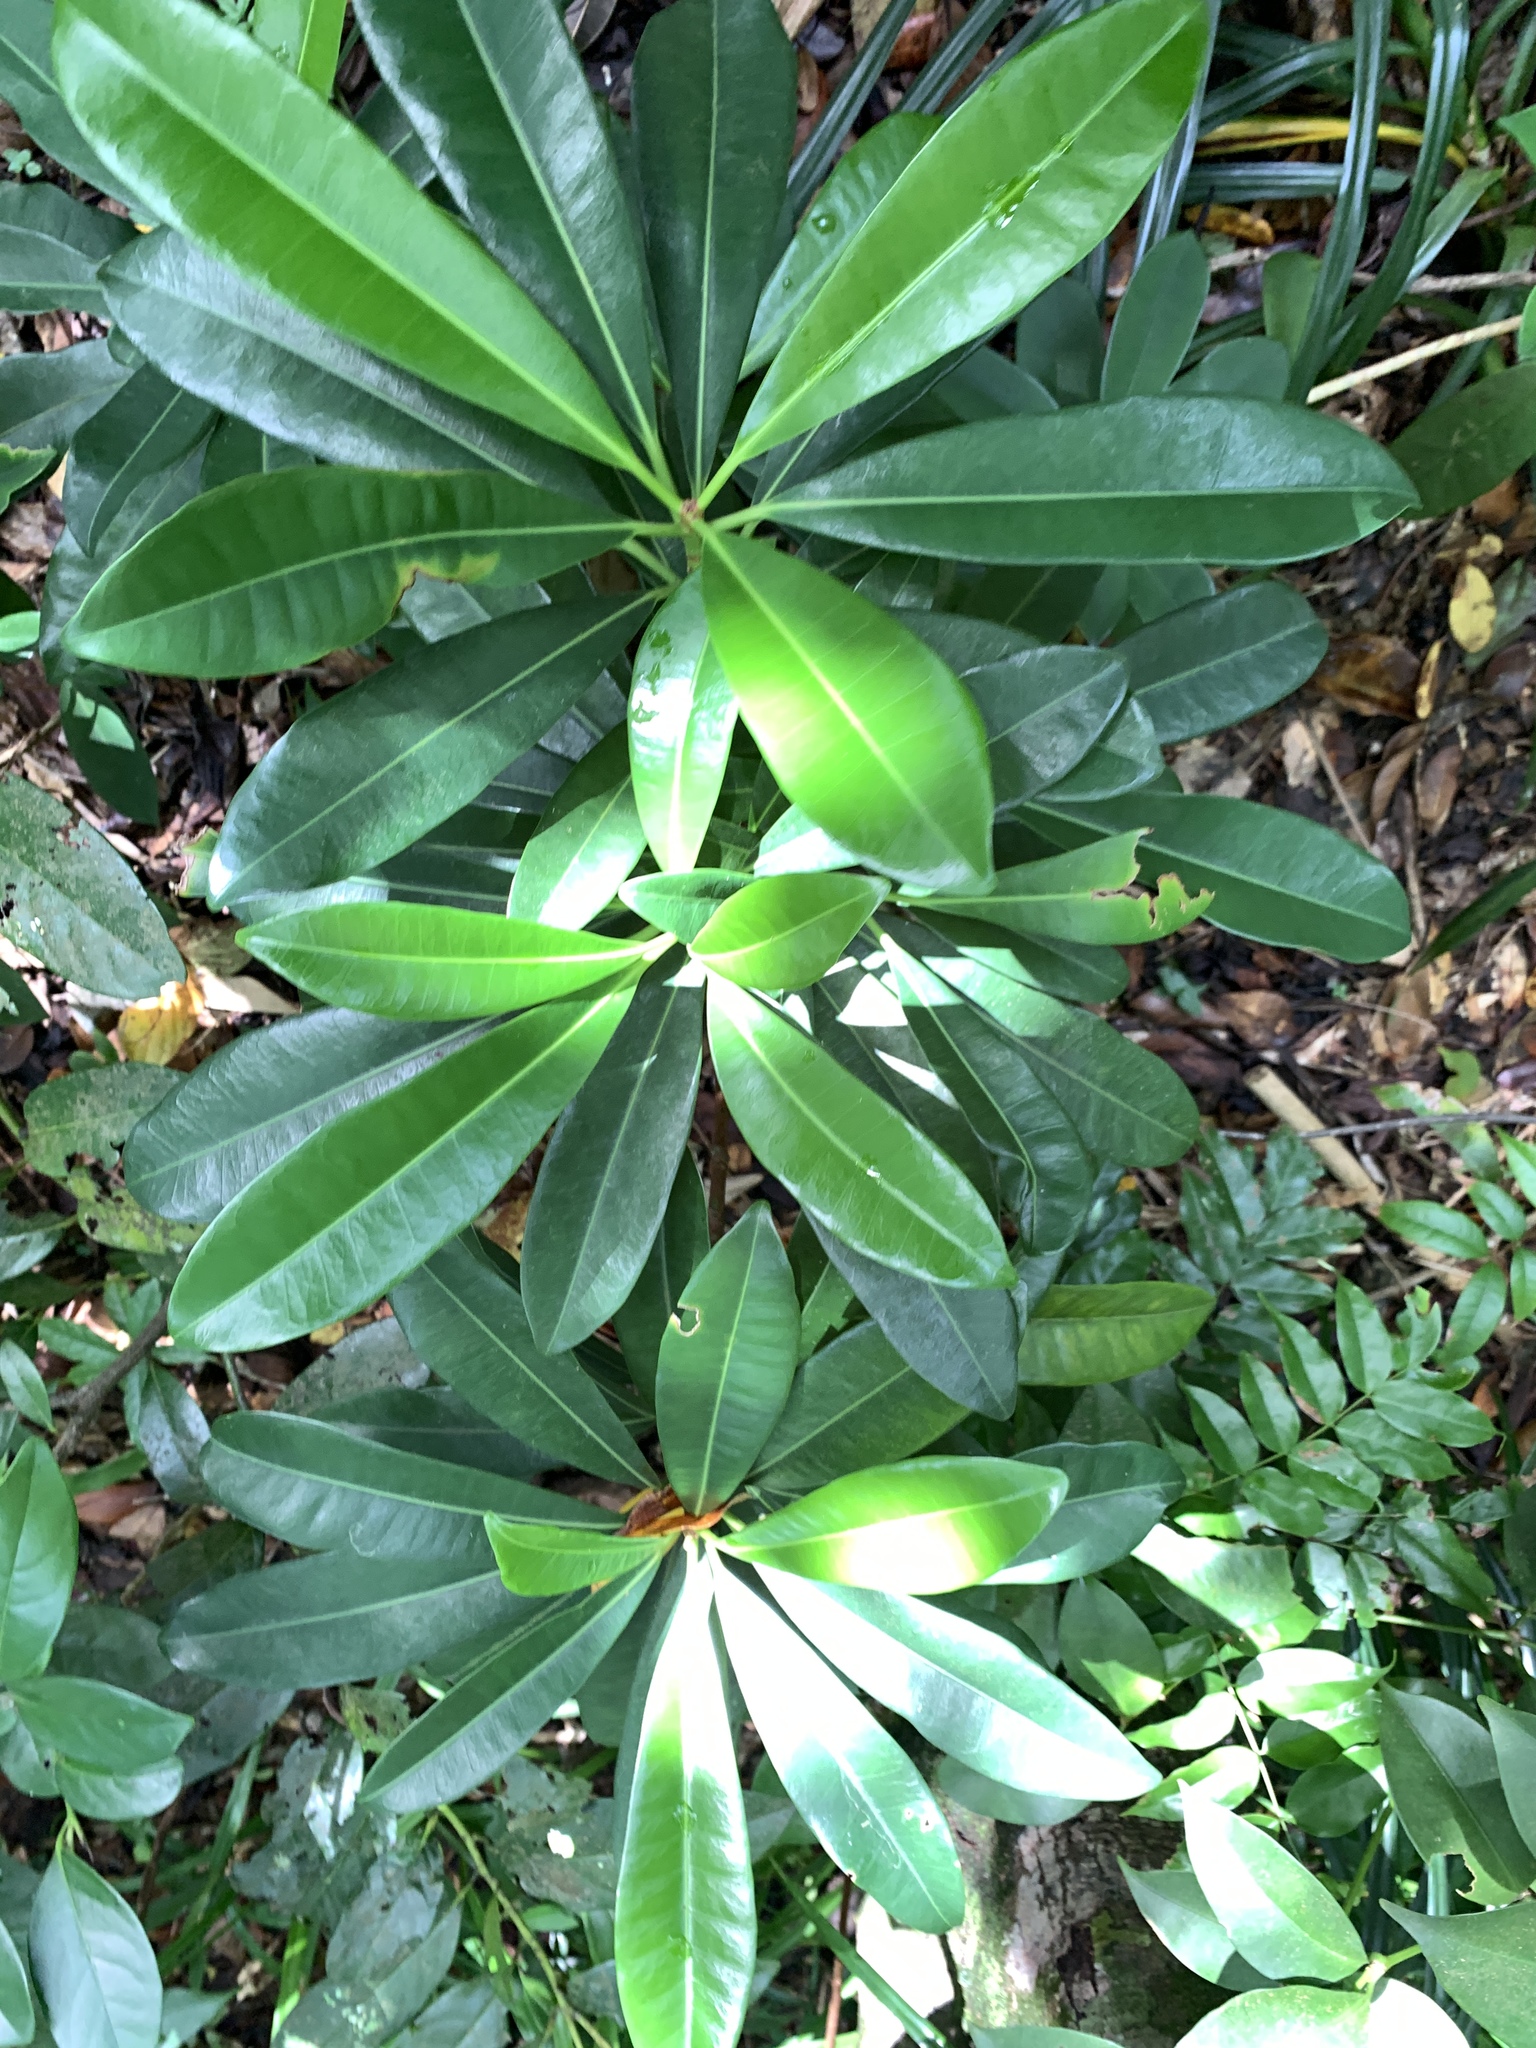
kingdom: Plantae
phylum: Tracheophyta
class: Magnoliopsida
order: Malpighiales
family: Euphorbiaceae
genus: Excoecaria
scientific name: Excoecaria kawakamii
